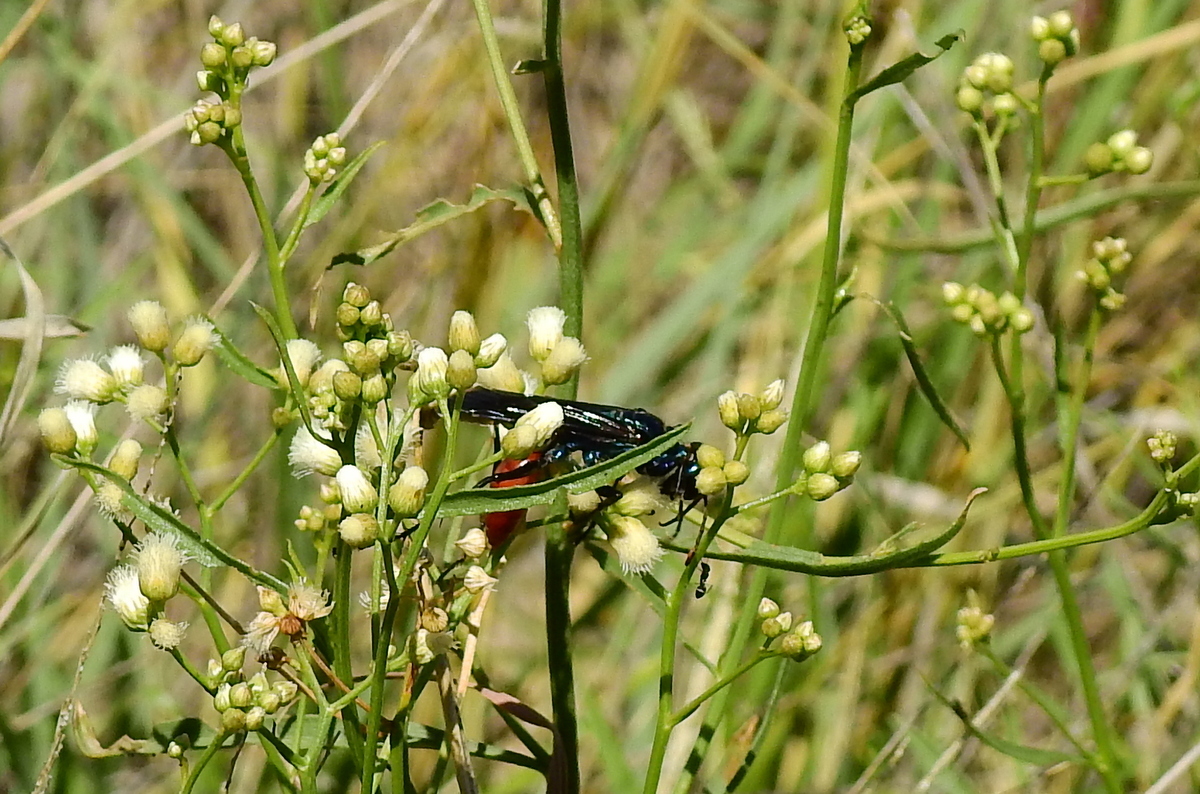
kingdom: Animalia
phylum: Arthropoda
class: Insecta
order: Hymenoptera
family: Sphecidae
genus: Chlorion
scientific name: Chlorion hemipyrrhum
